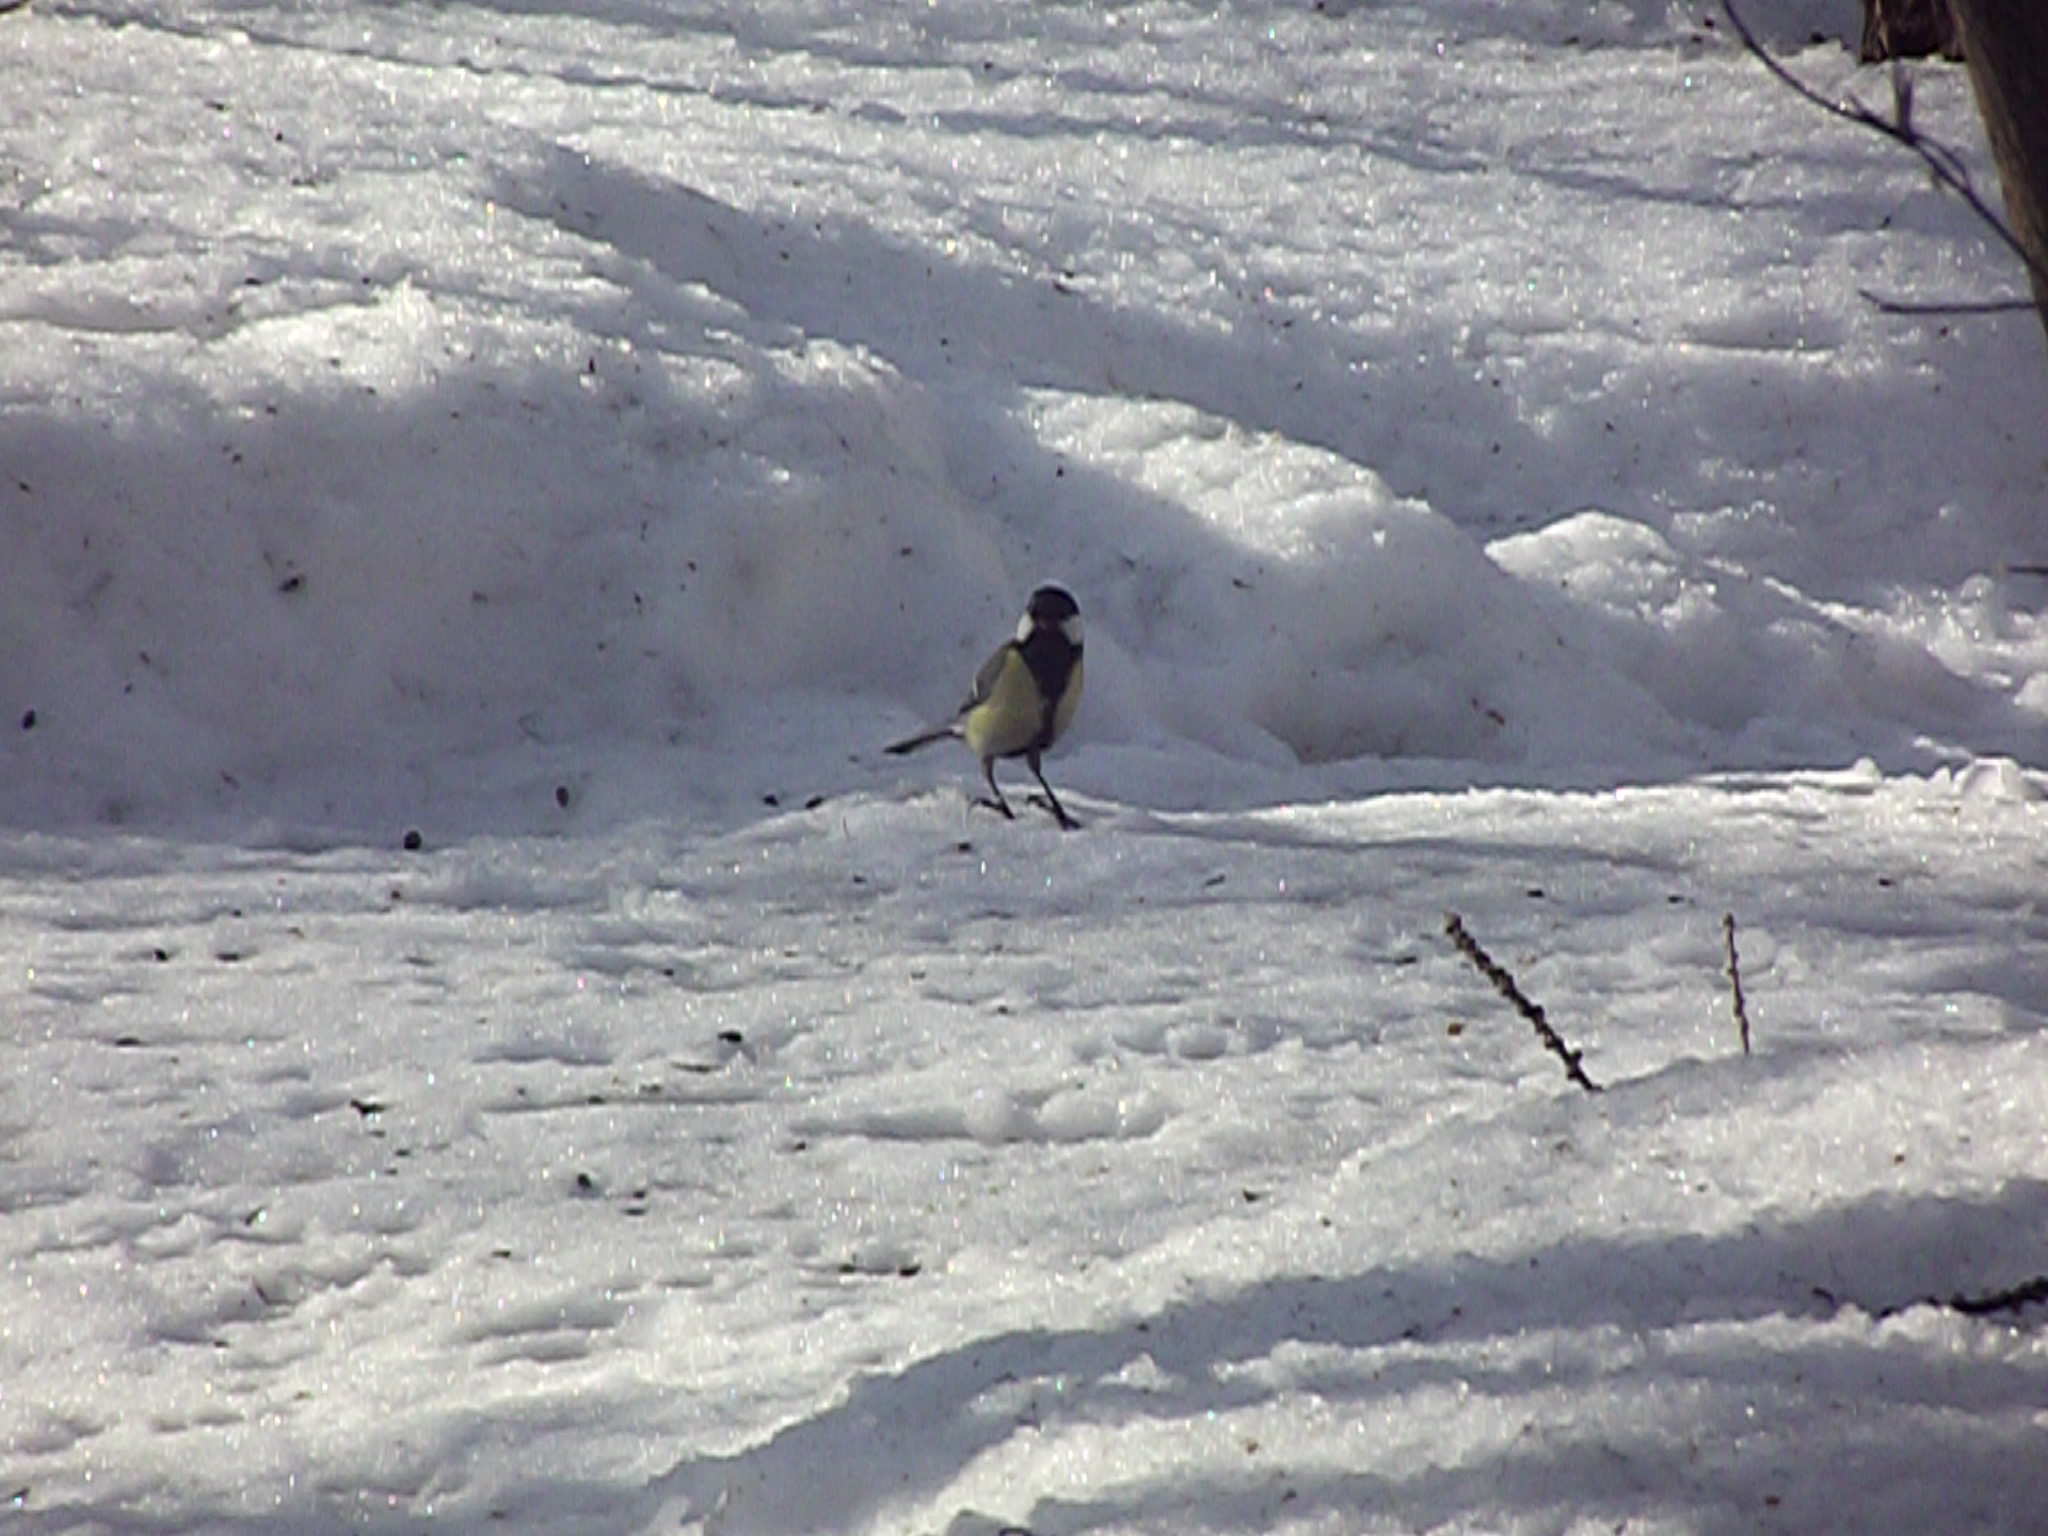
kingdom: Animalia
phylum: Chordata
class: Aves
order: Passeriformes
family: Paridae
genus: Parus
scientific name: Parus major
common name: Great tit
